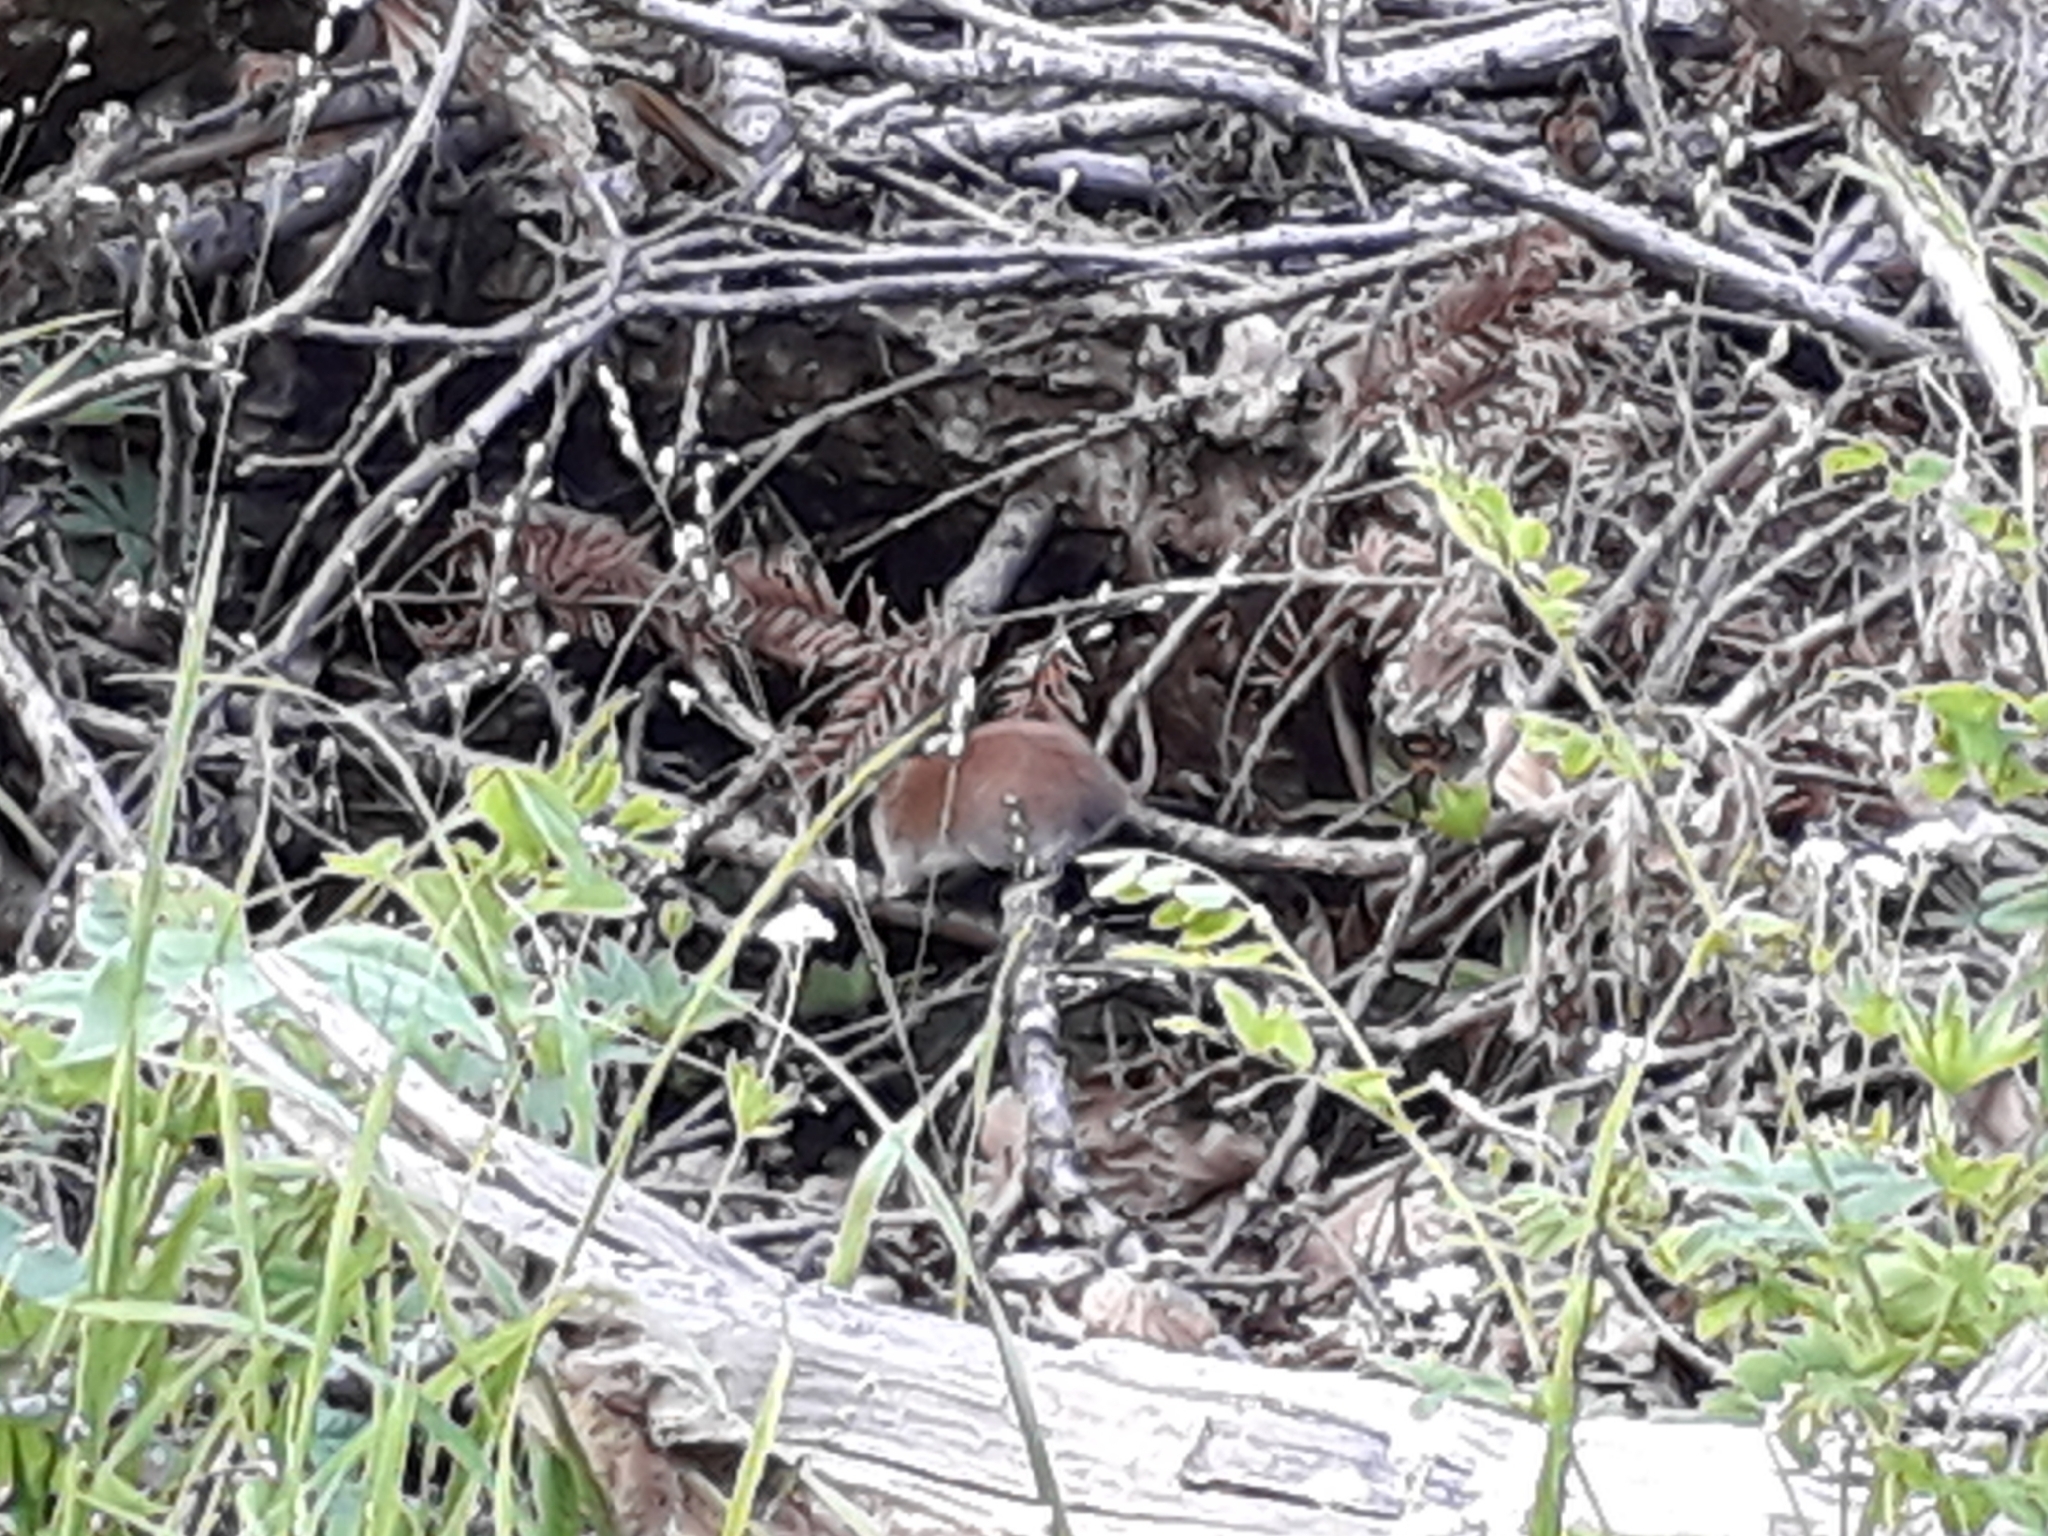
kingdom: Animalia
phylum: Chordata
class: Mammalia
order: Rodentia
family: Cricetidae
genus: Myodes
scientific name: Myodes glareolus
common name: Bank vole
